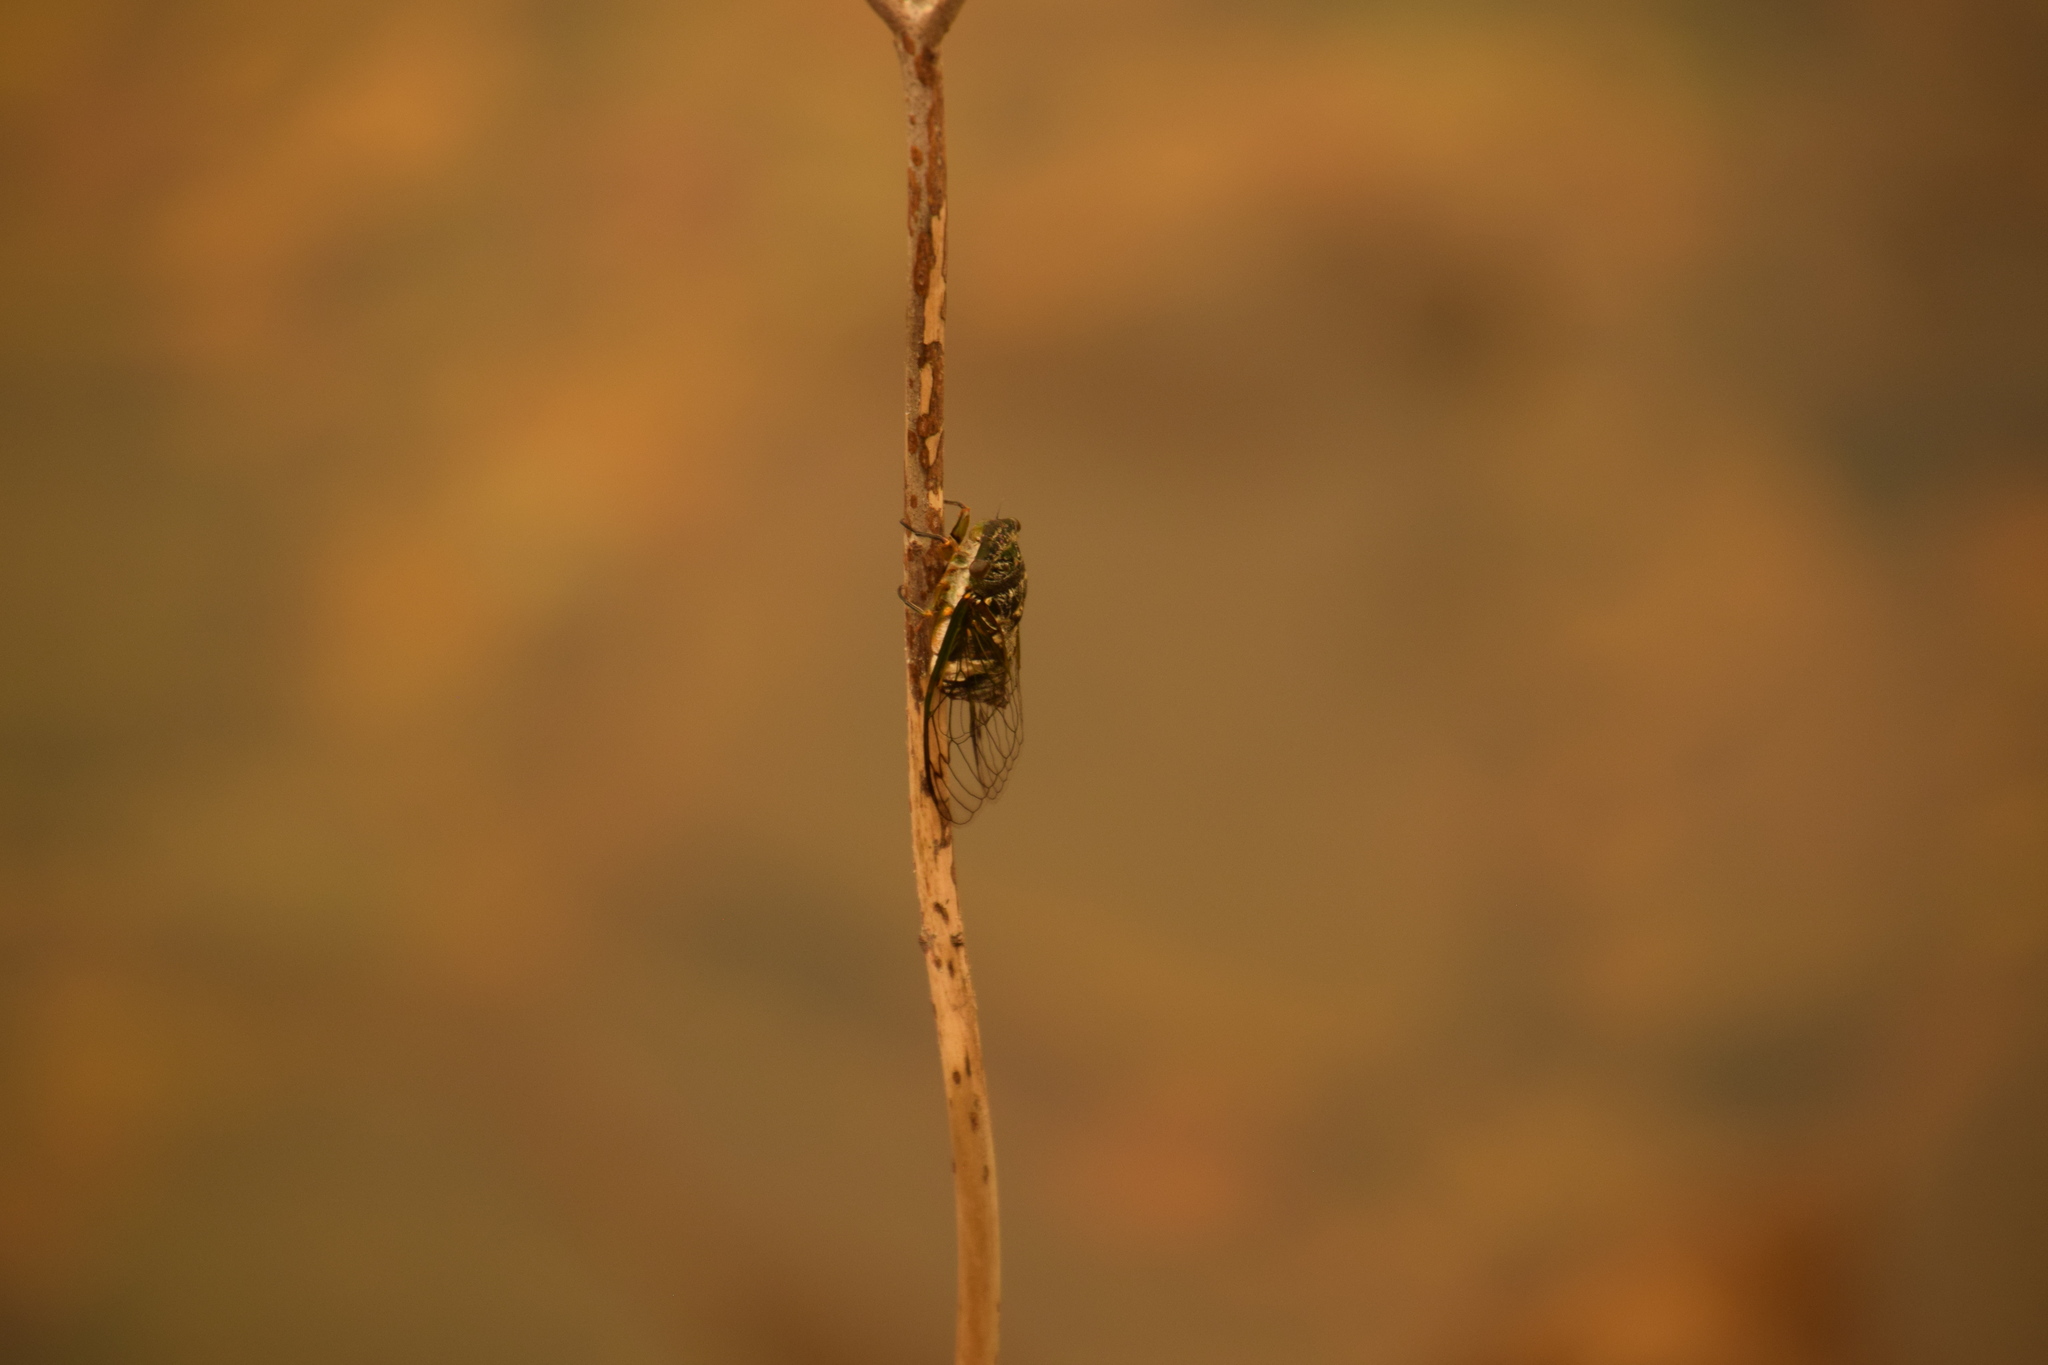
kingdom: Animalia
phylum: Arthropoda
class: Insecta
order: Hemiptera
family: Cicadidae
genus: Psaltoda
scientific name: Psaltoda plaga
